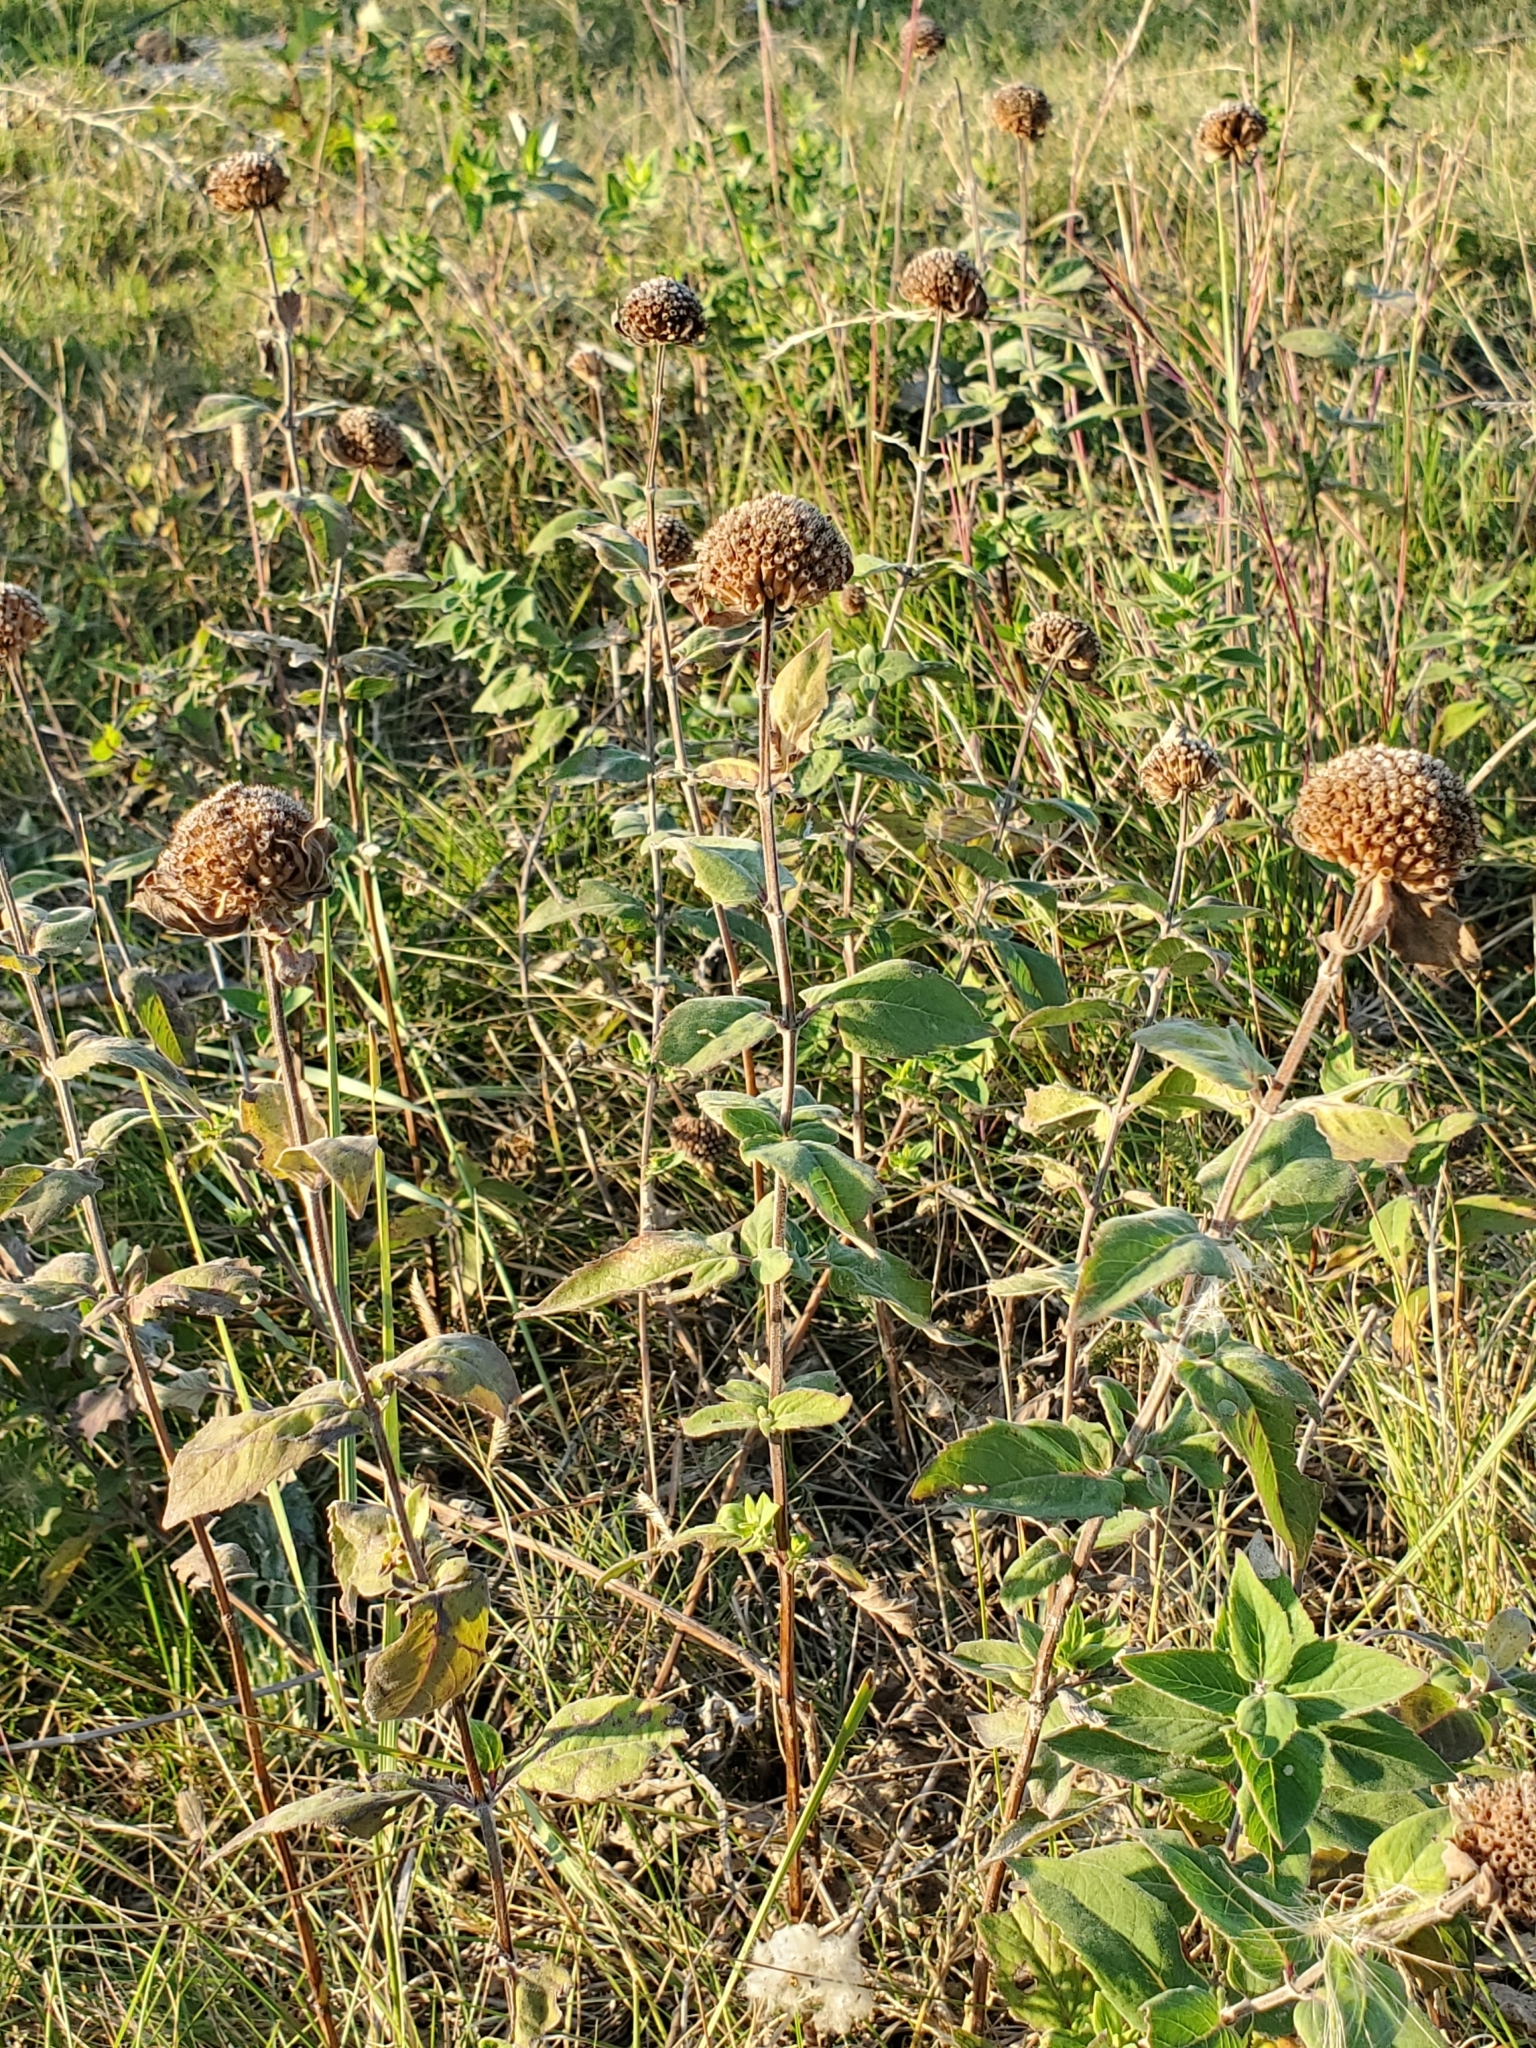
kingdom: Plantae
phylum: Tracheophyta
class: Magnoliopsida
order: Lamiales
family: Lamiaceae
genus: Monarda
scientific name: Monarda fistulosa
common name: Purple beebalm
